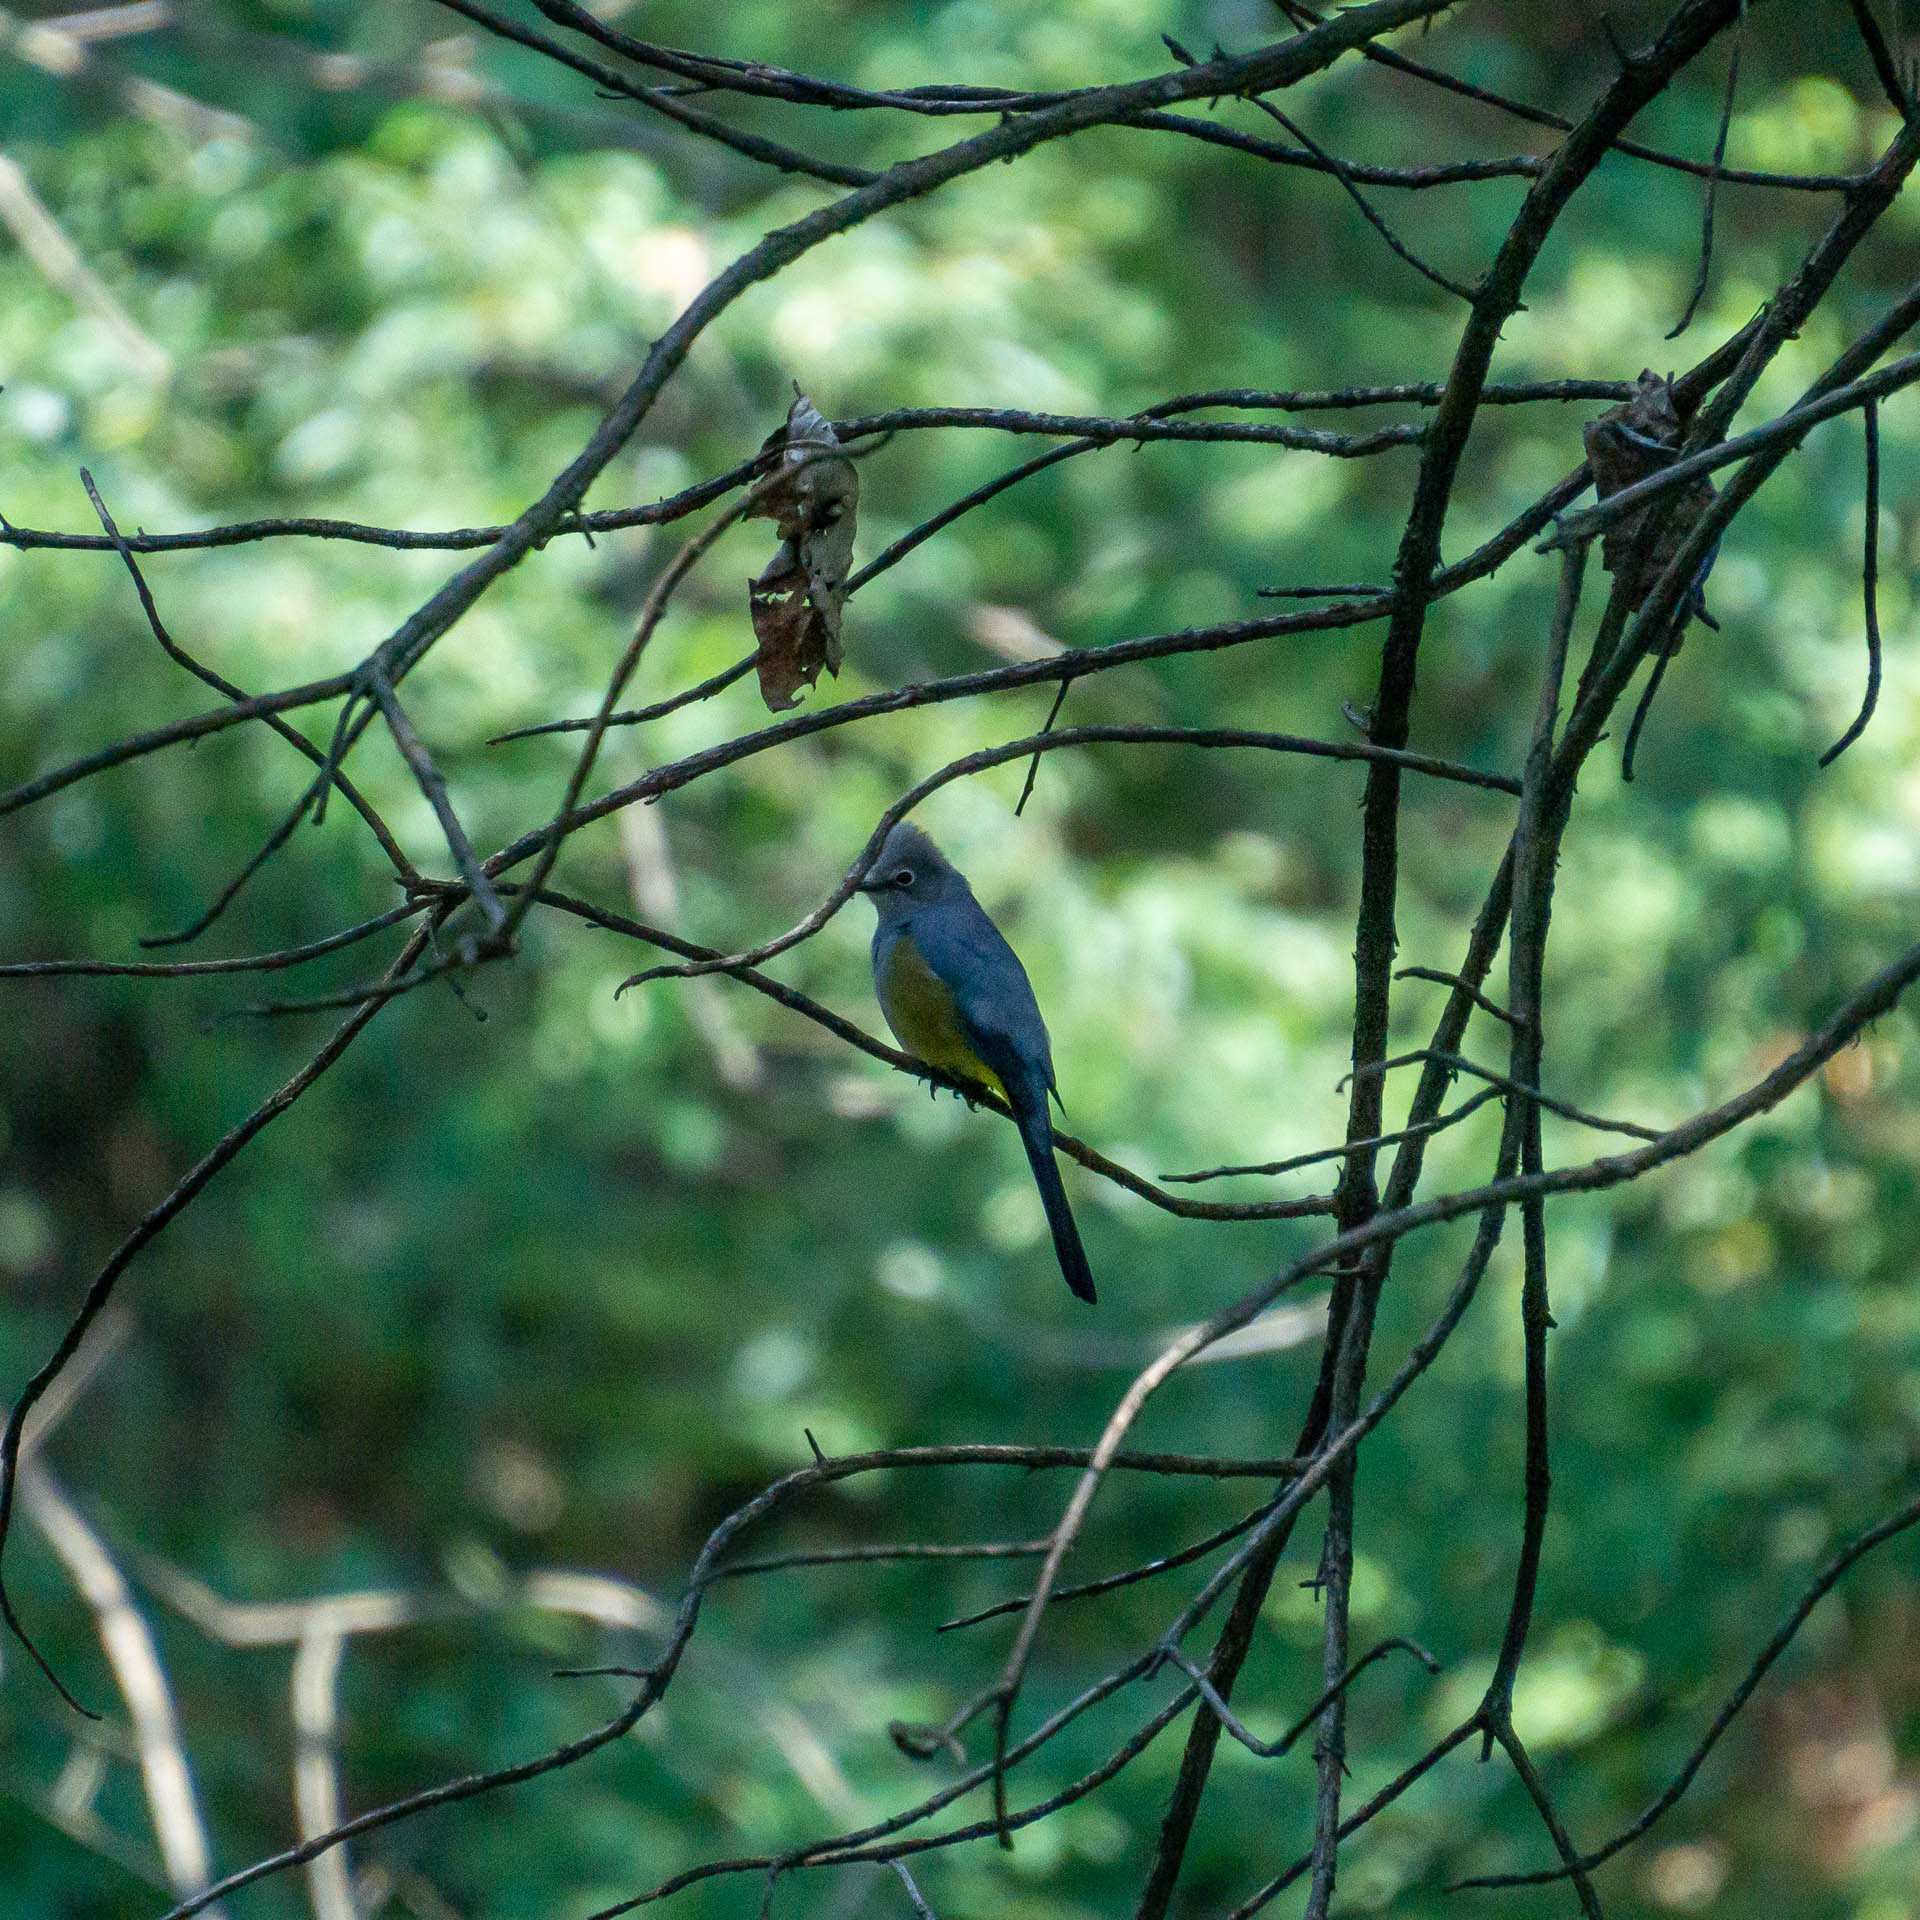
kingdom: Animalia
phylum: Chordata
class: Aves
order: Passeriformes
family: Ptilogonatidae
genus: Ptilogonys
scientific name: Ptilogonys cinereus
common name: Gray silky-flycatcher
